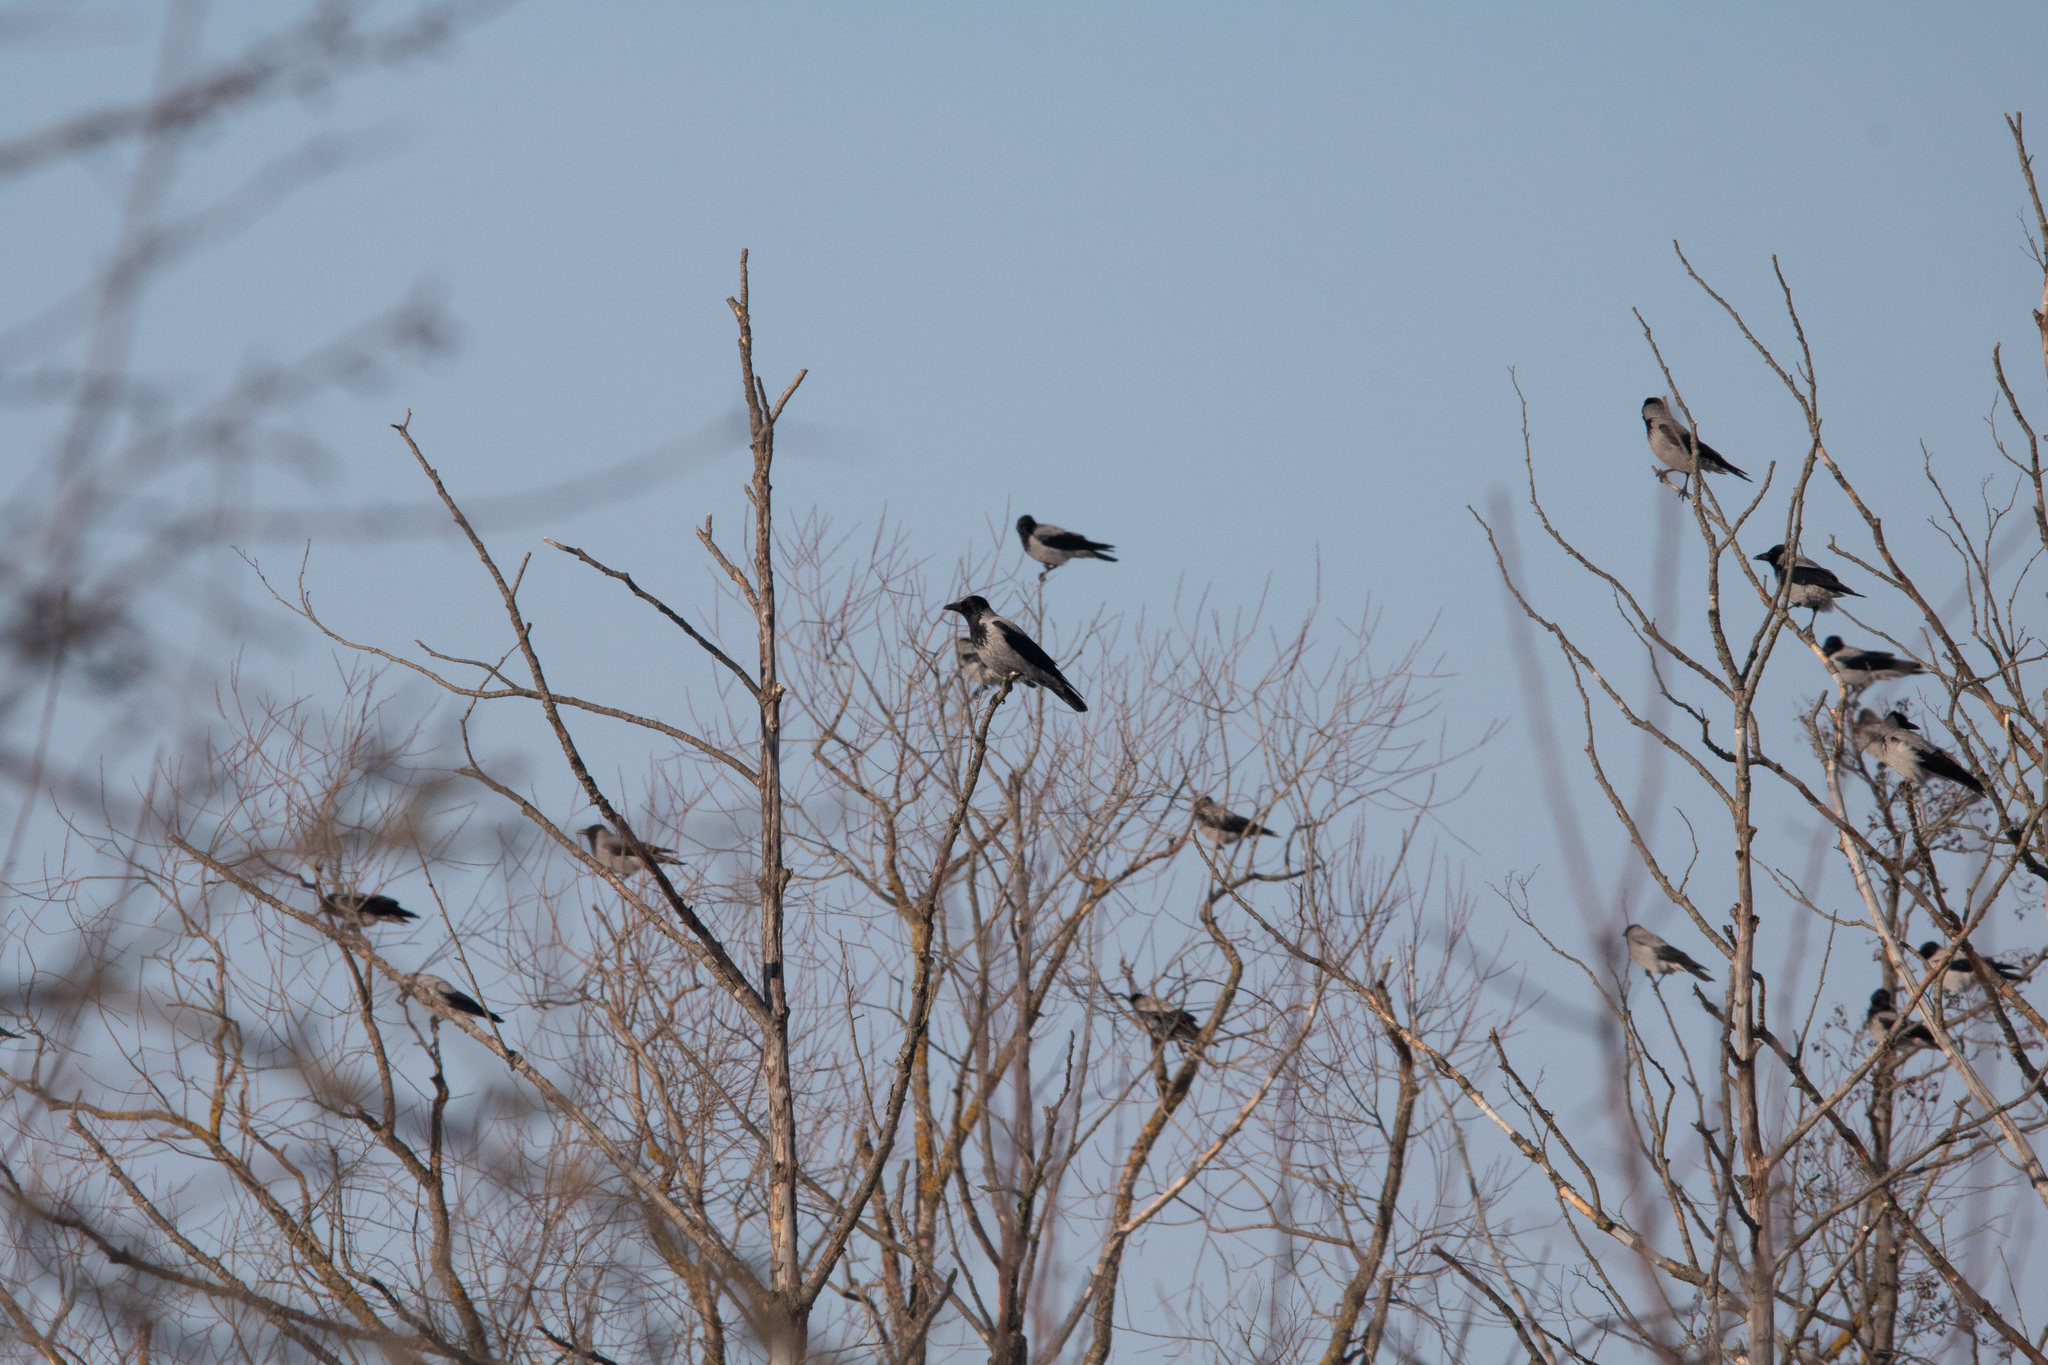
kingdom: Animalia
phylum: Chordata
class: Aves
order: Passeriformes
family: Corvidae
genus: Corvus
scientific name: Corvus cornix
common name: Hooded crow
